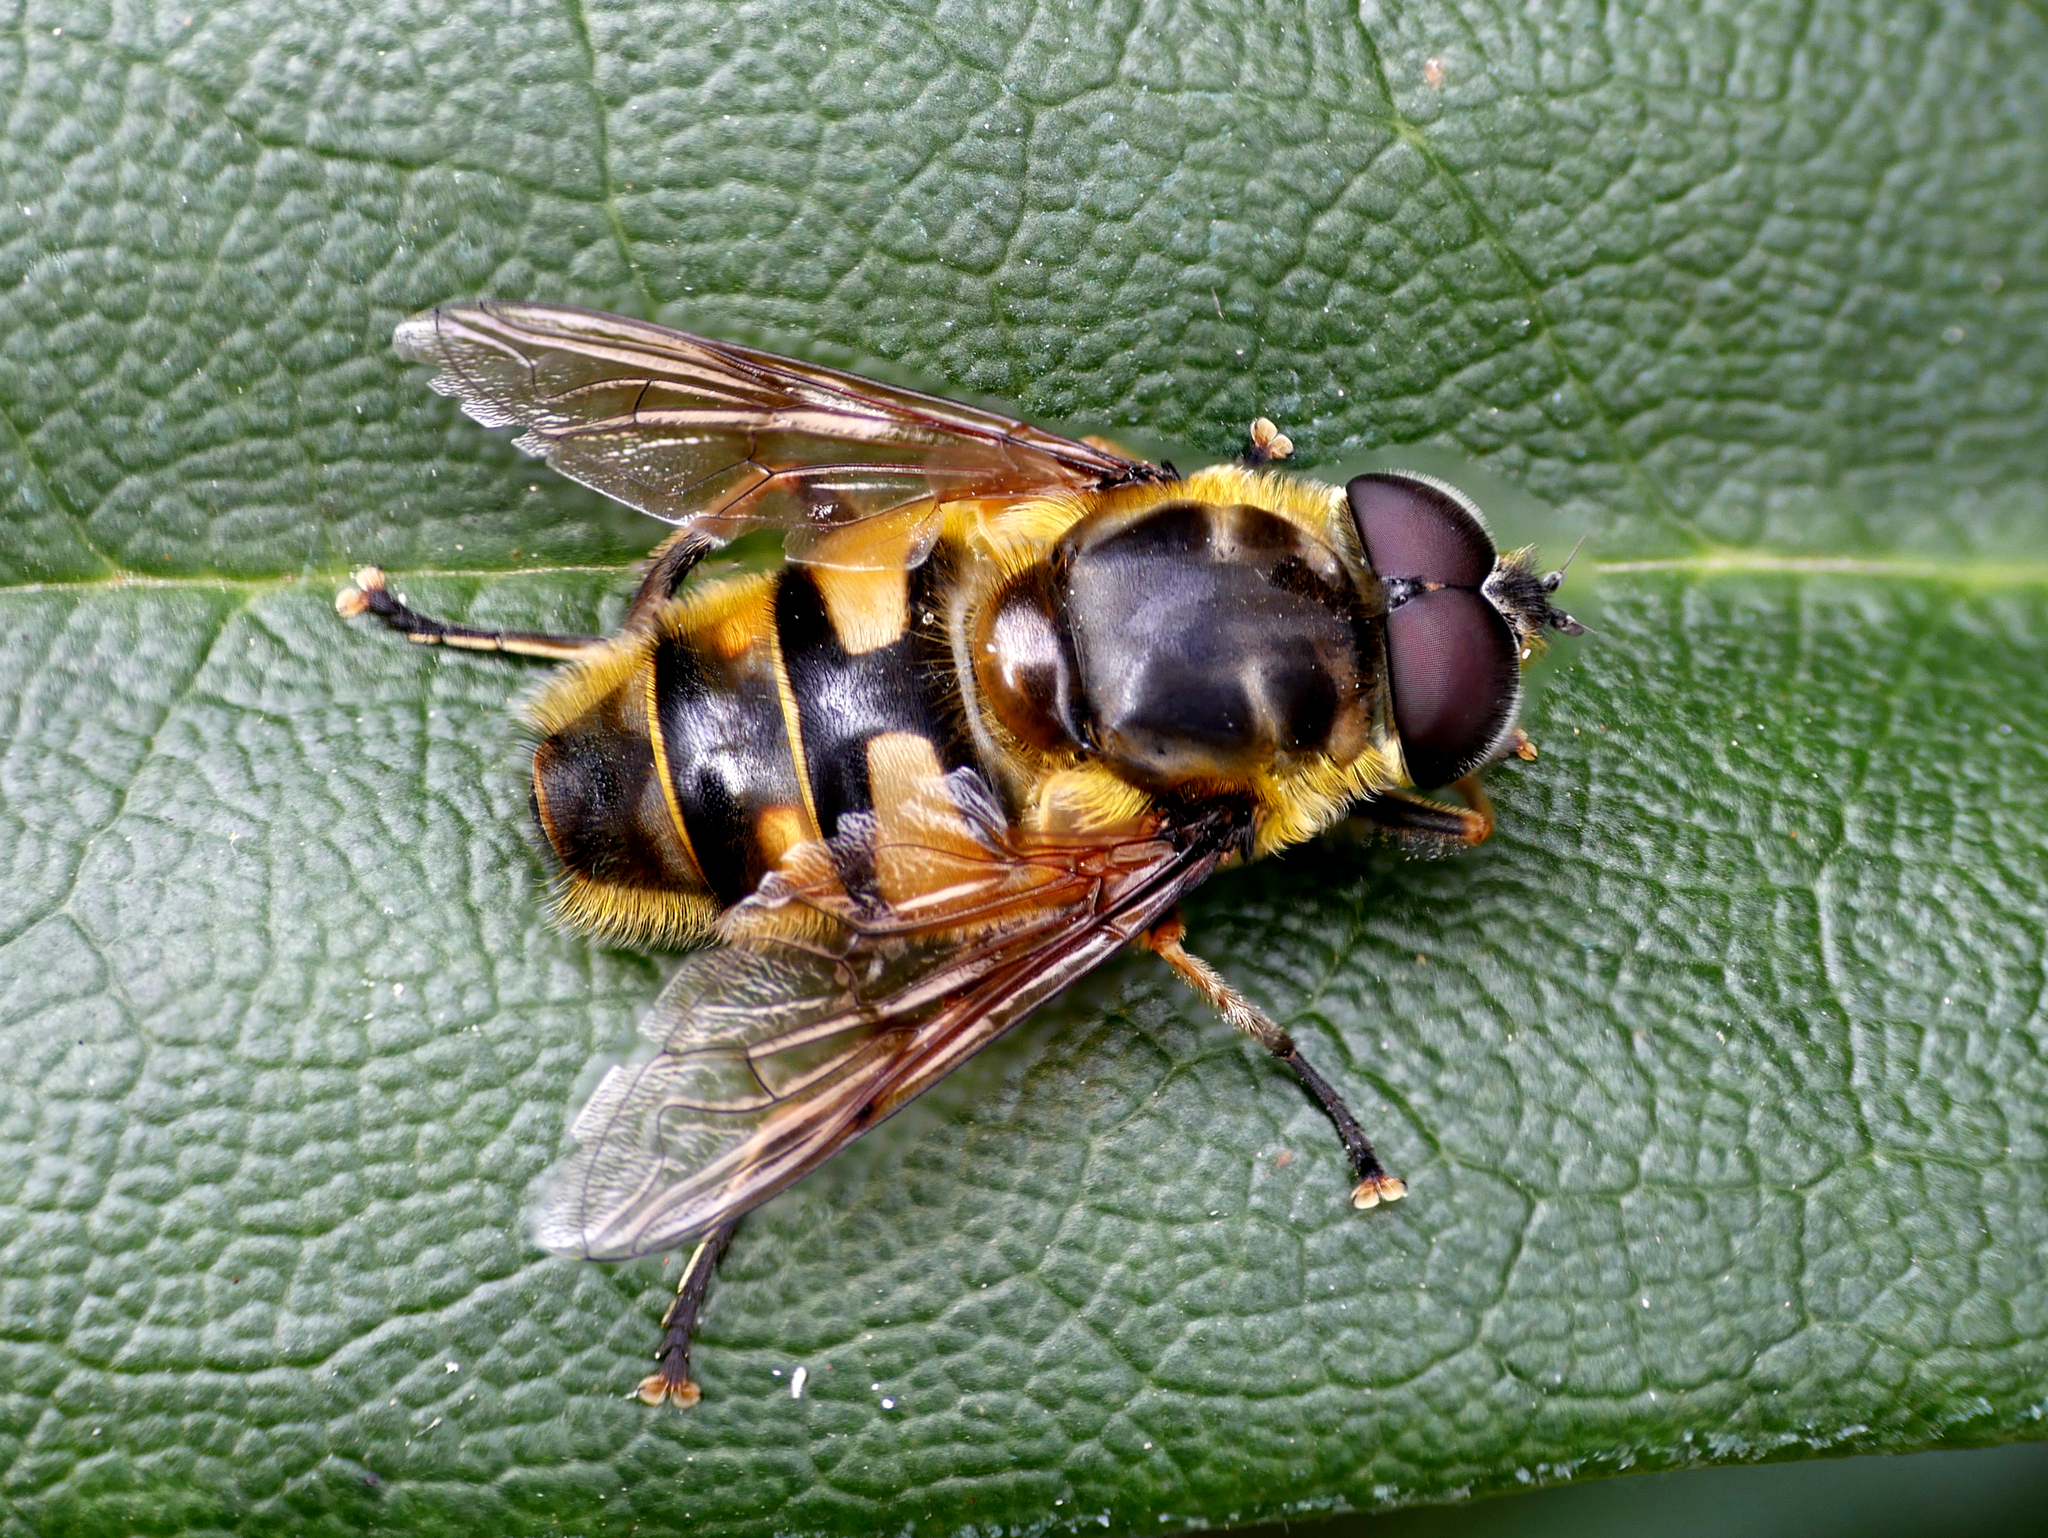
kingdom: Animalia
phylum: Arthropoda
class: Insecta
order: Diptera
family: Syrphidae
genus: Myathropa
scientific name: Myathropa florea
